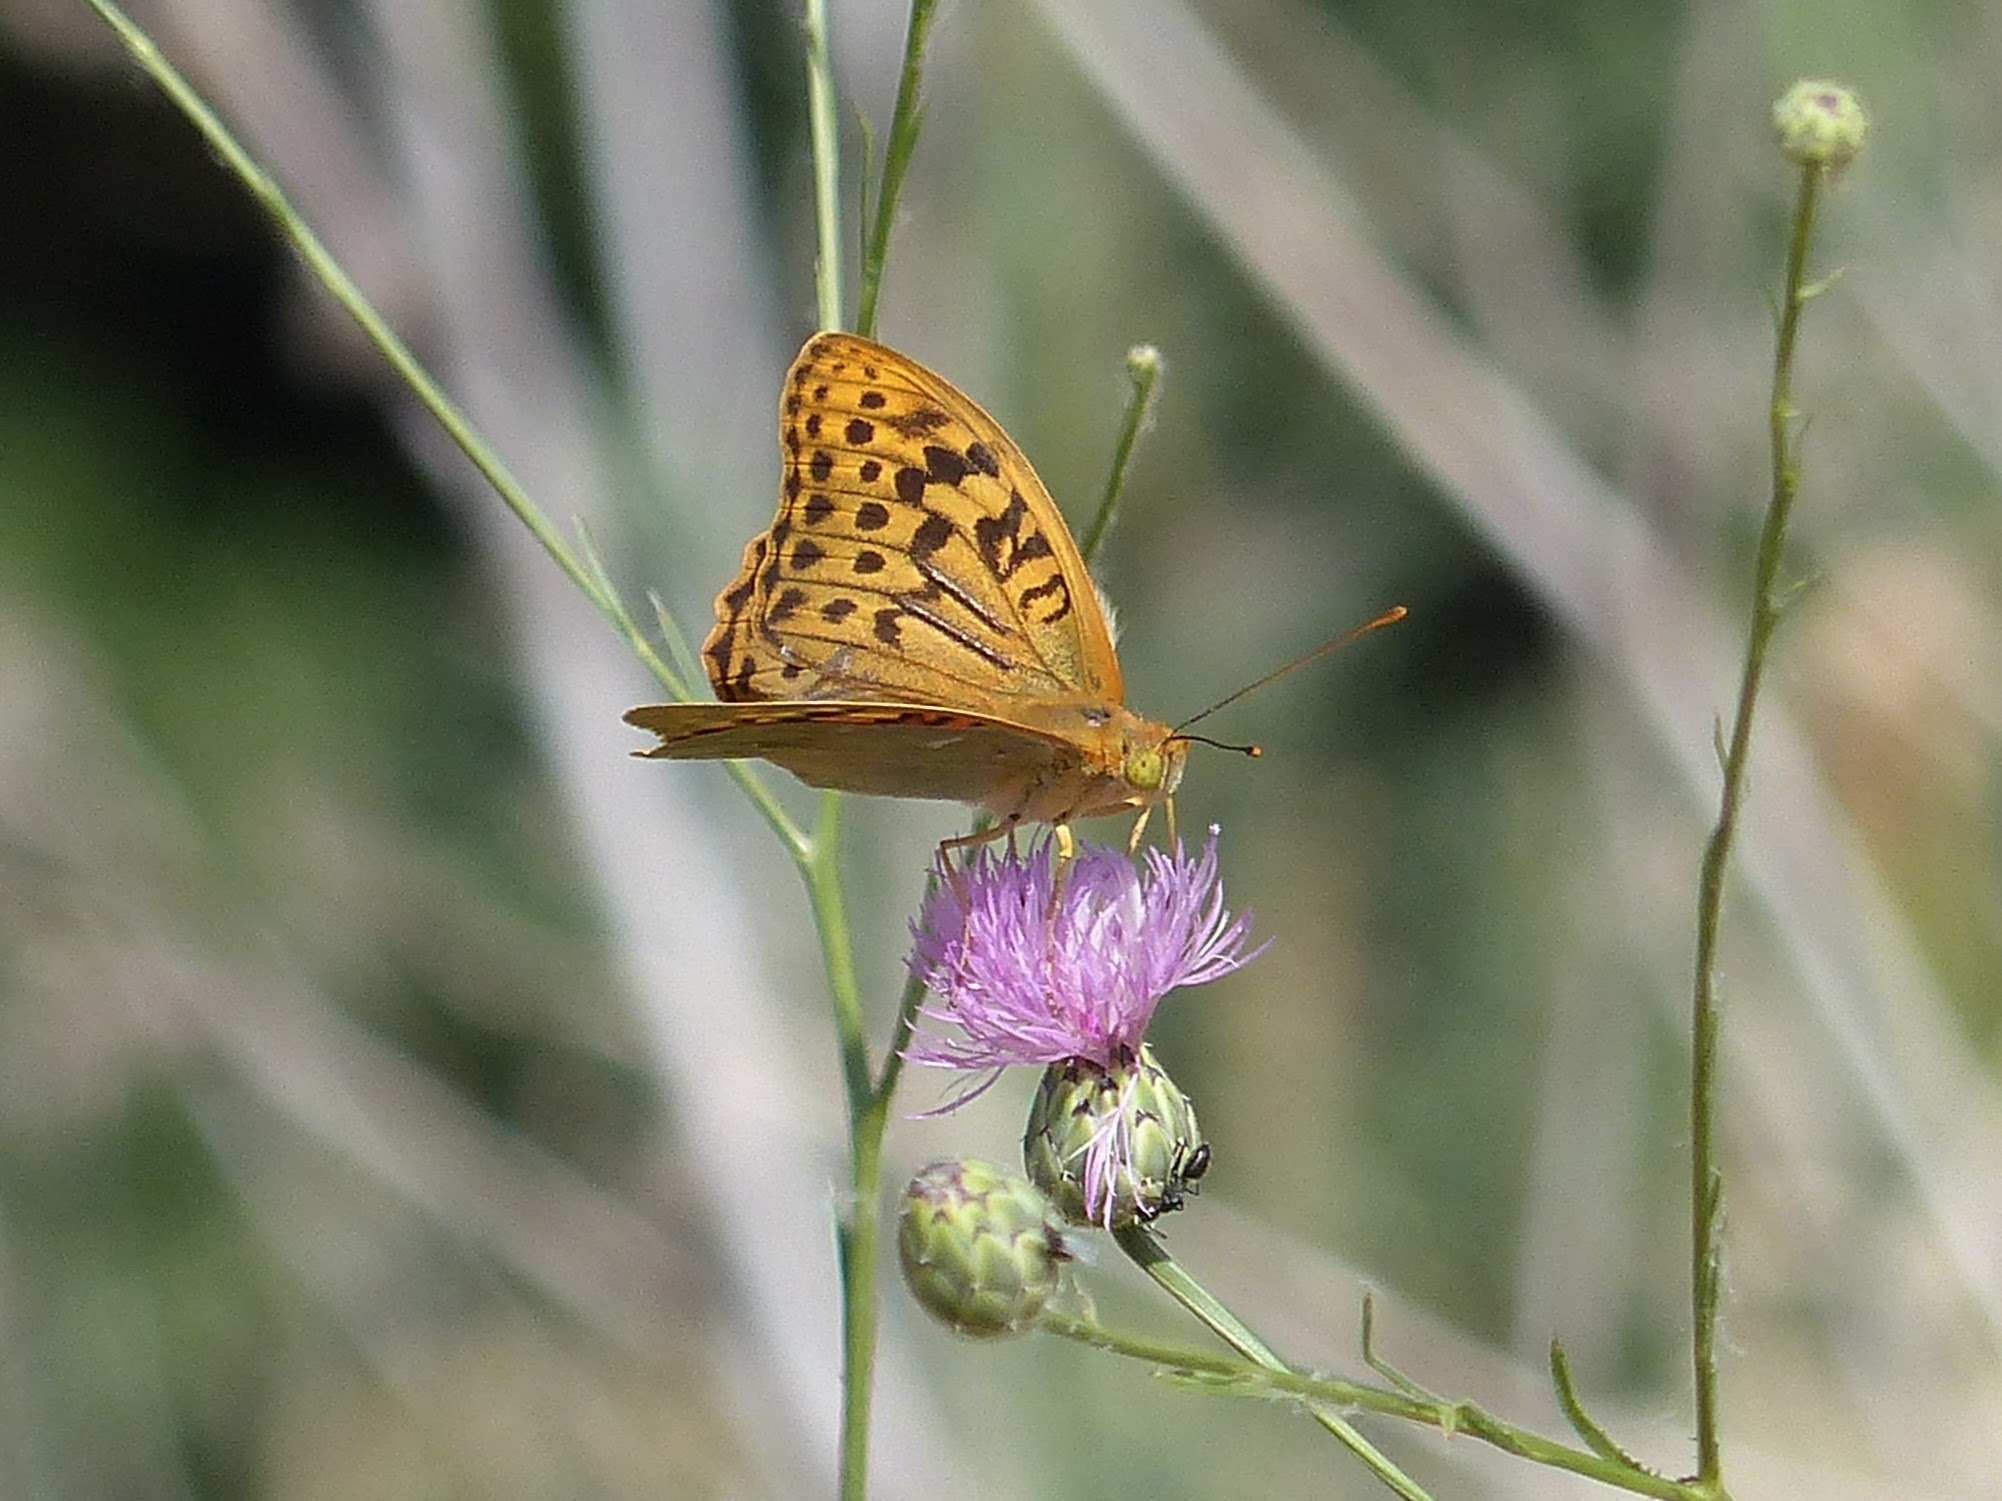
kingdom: Animalia
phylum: Arthropoda
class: Insecta
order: Lepidoptera
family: Nymphalidae
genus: Damora
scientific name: Damora pandora
